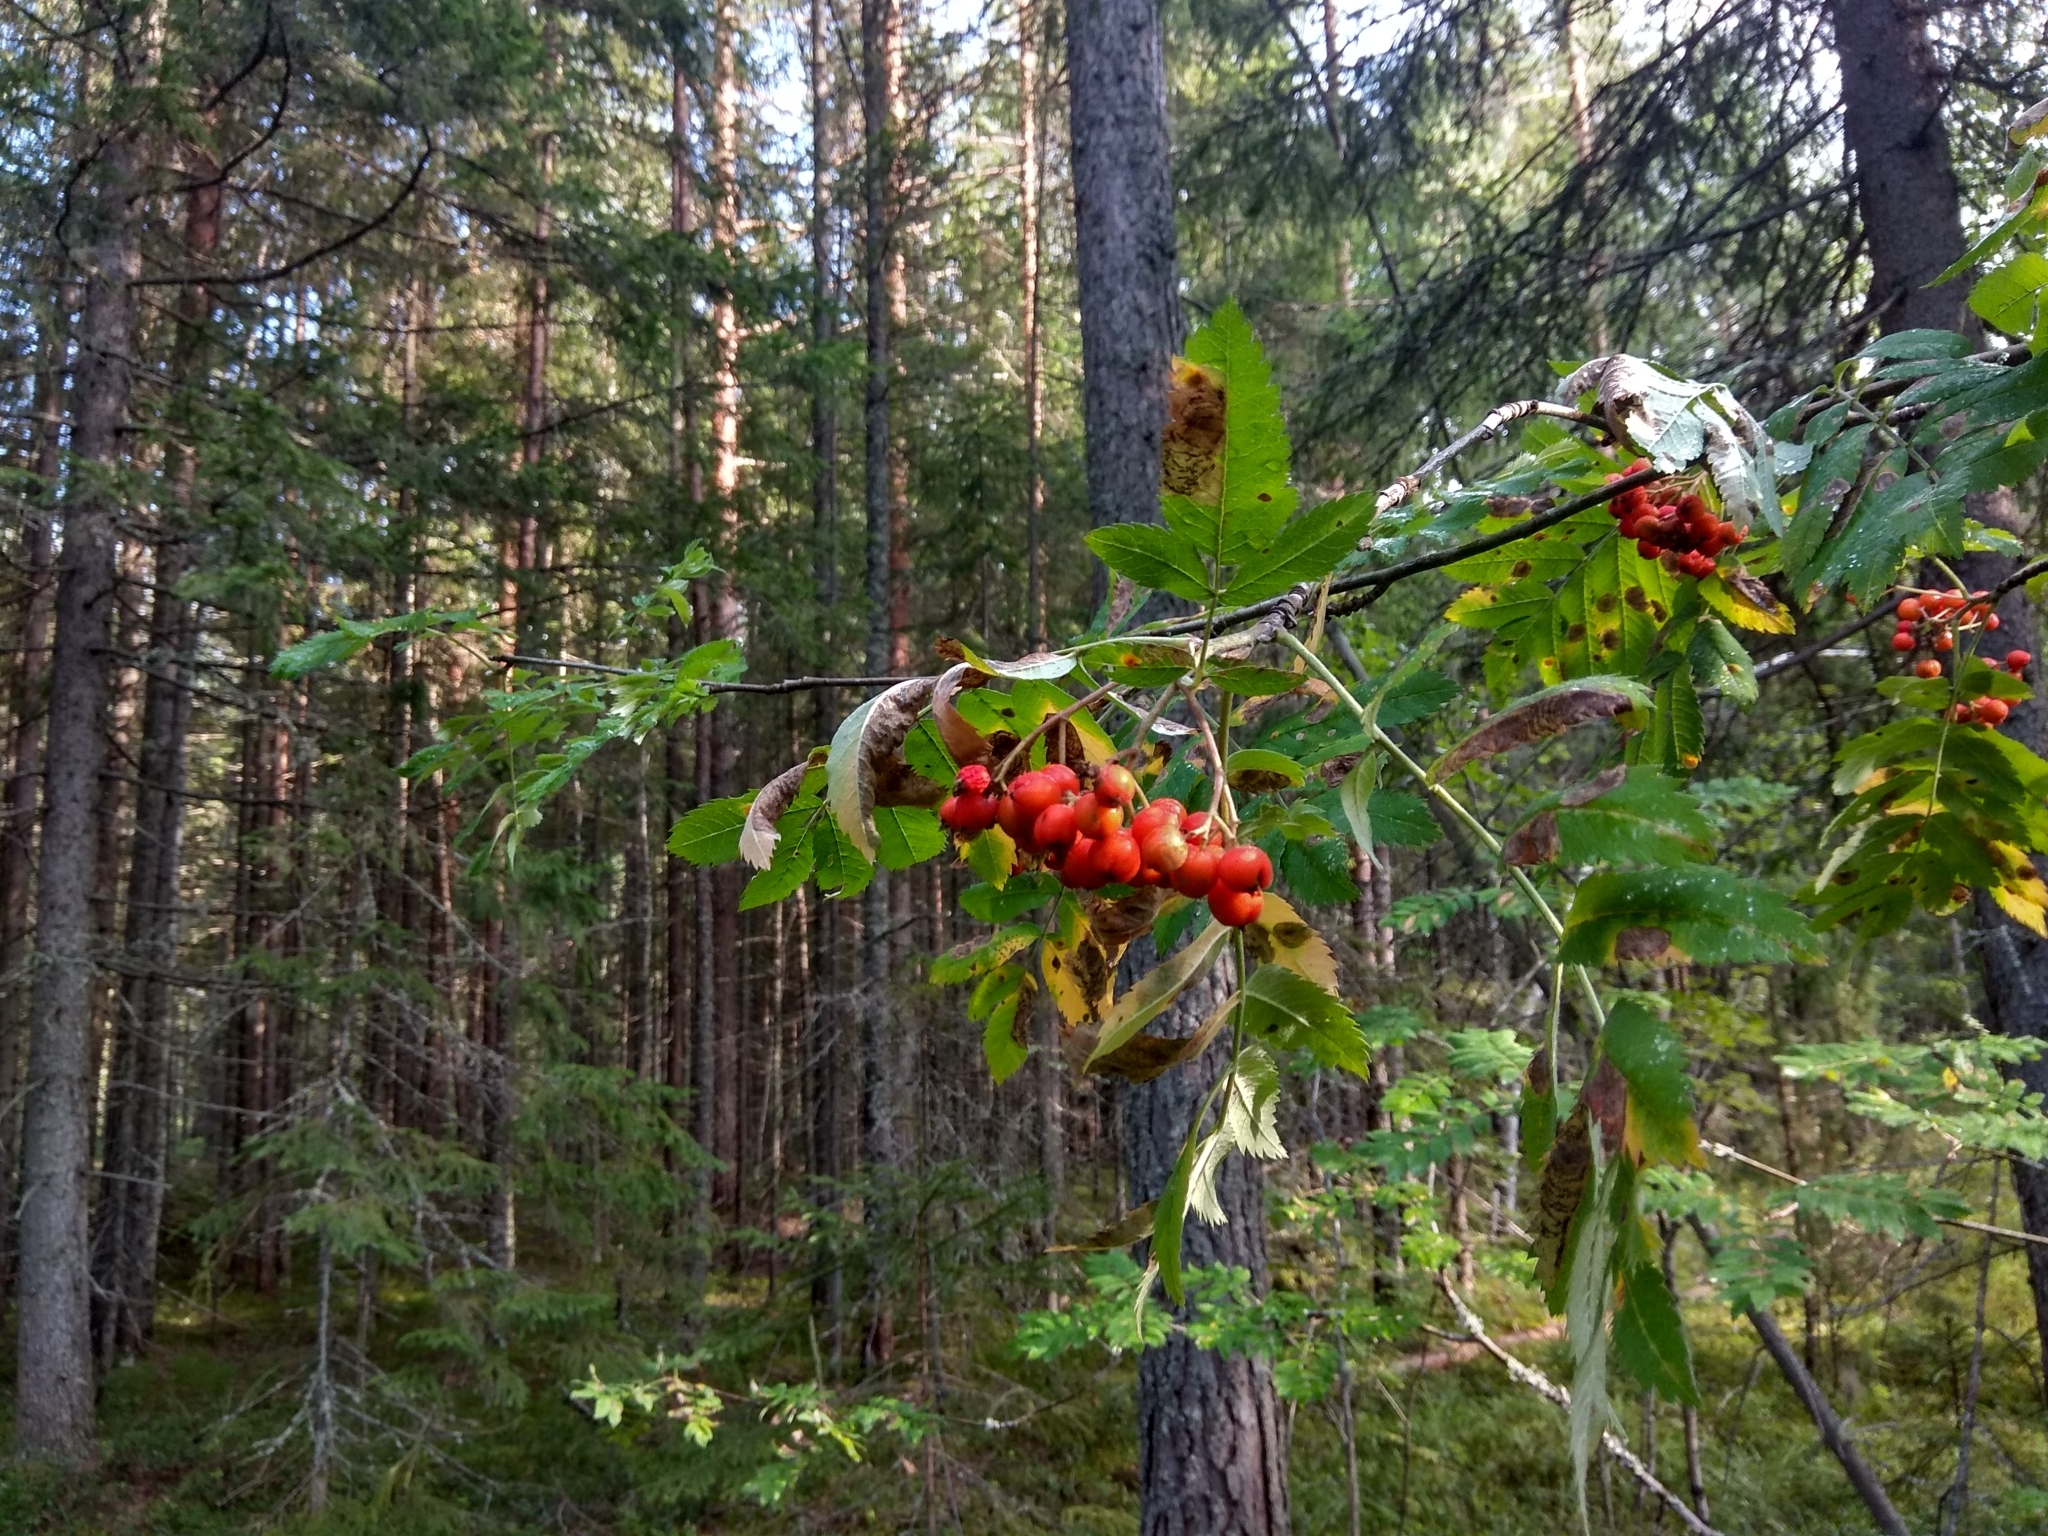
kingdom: Plantae
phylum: Tracheophyta
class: Magnoliopsida
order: Rosales
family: Rosaceae
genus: Sorbus
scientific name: Sorbus aucuparia
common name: Rowan
